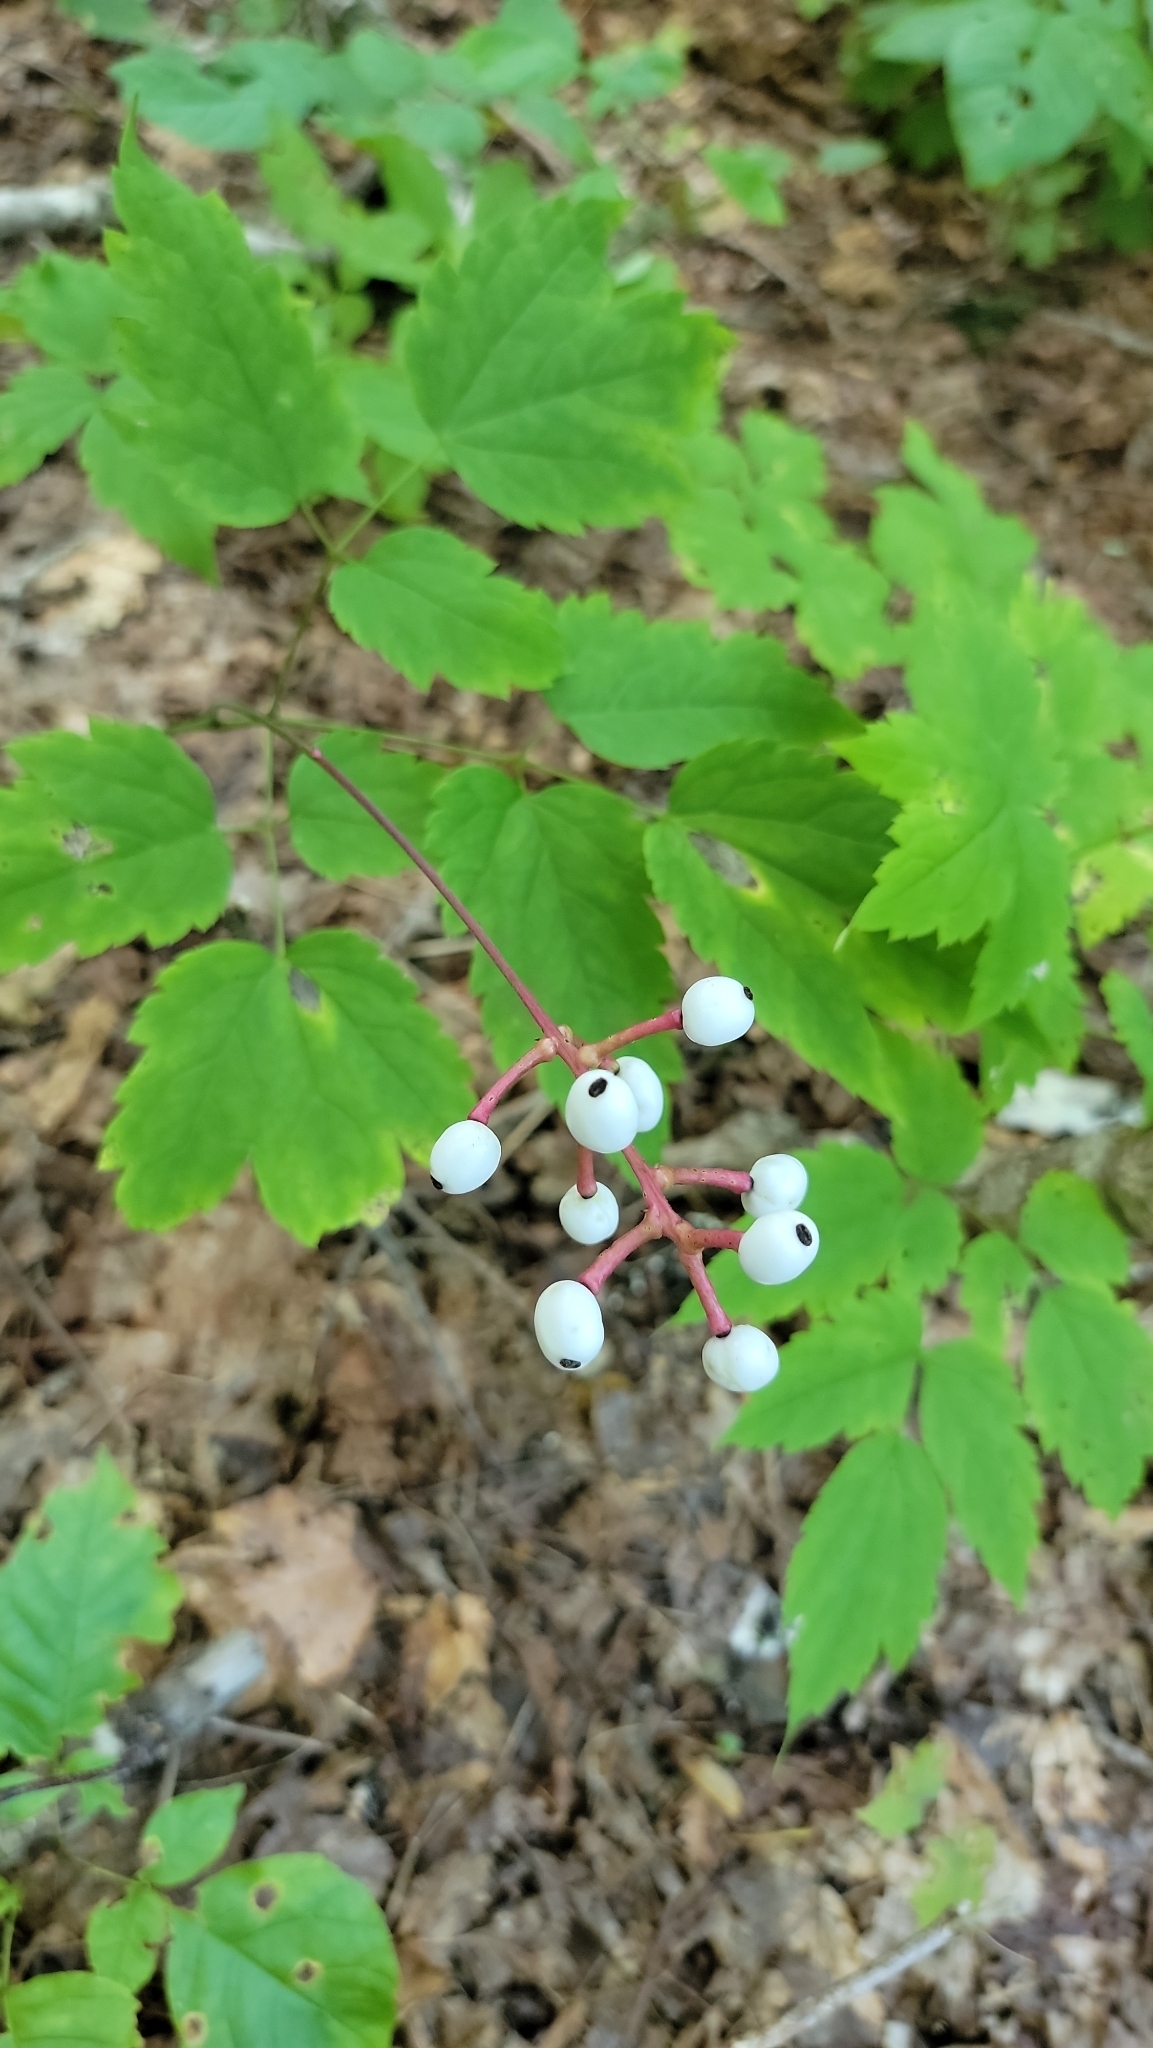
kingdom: Plantae
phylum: Tracheophyta
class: Magnoliopsida
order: Ranunculales
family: Ranunculaceae
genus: Actaea
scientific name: Actaea pachypoda
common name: Doll's-eyes
